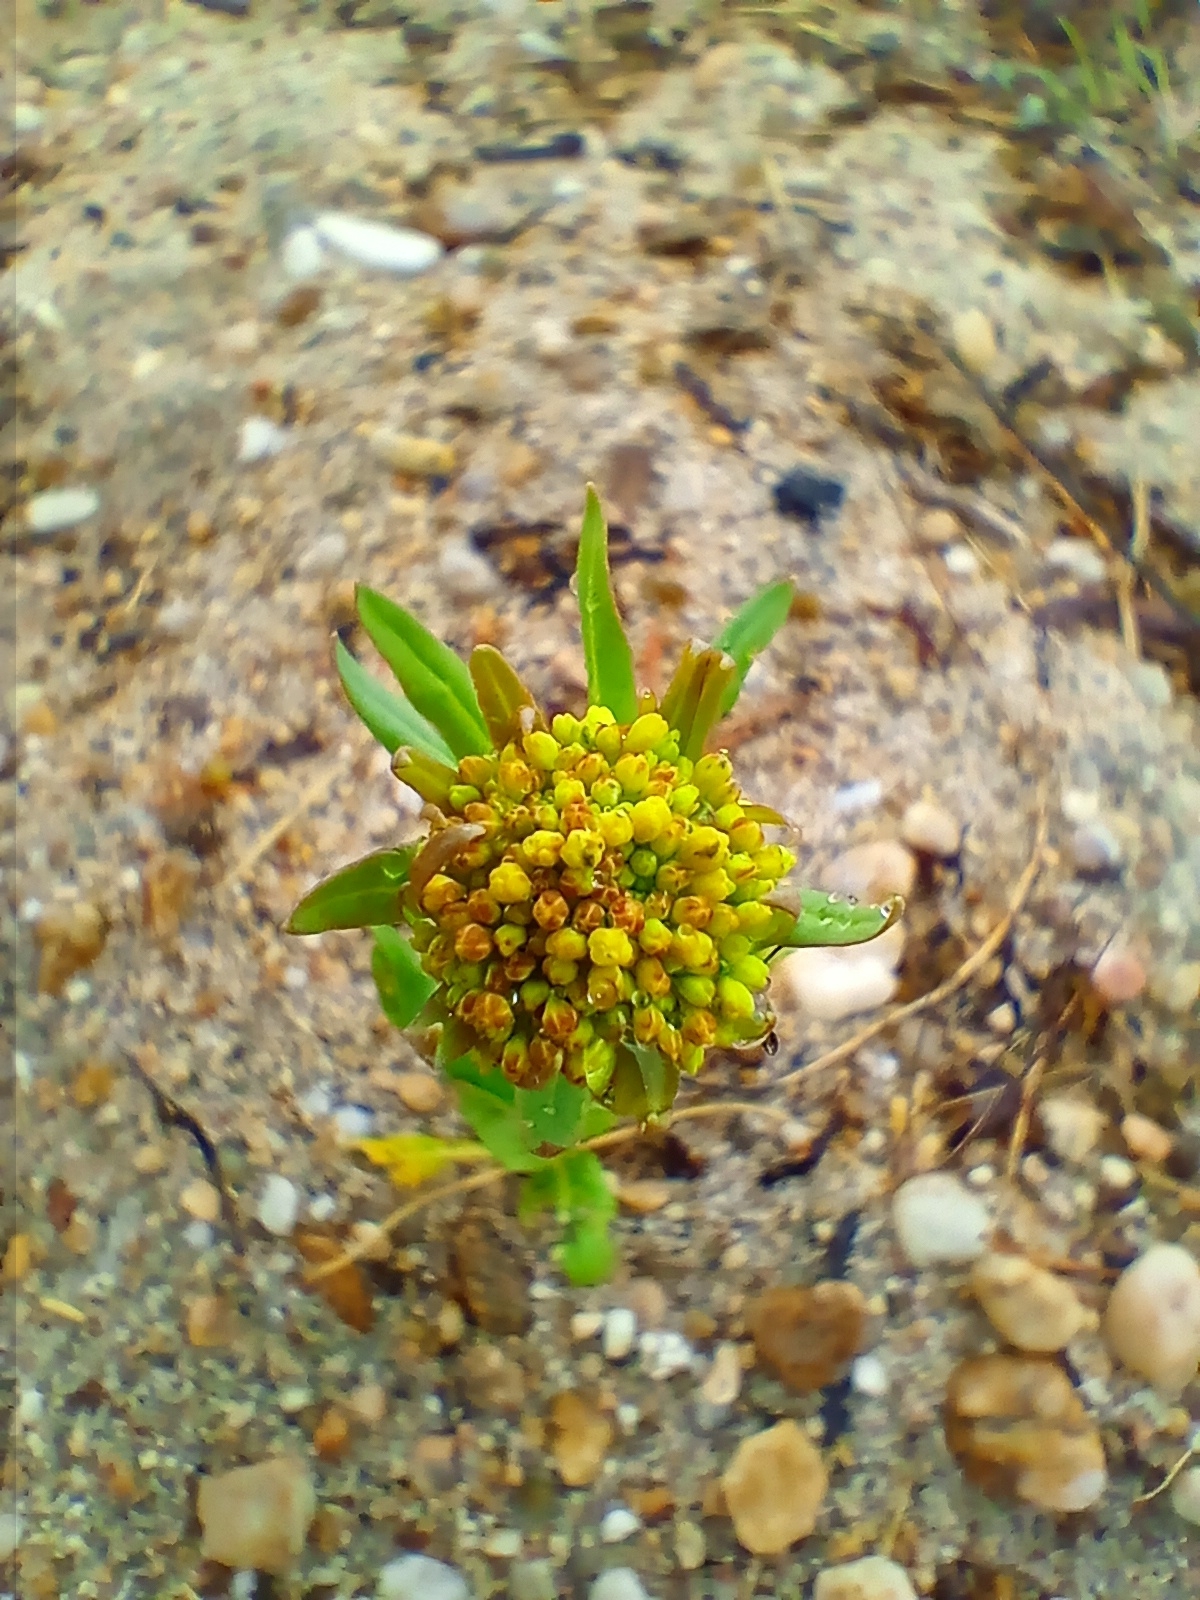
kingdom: Plantae
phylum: Tracheophyta
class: Magnoliopsida
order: Dipsacales
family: Caprifoliaceae
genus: Patrinia
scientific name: Patrinia sibirica
